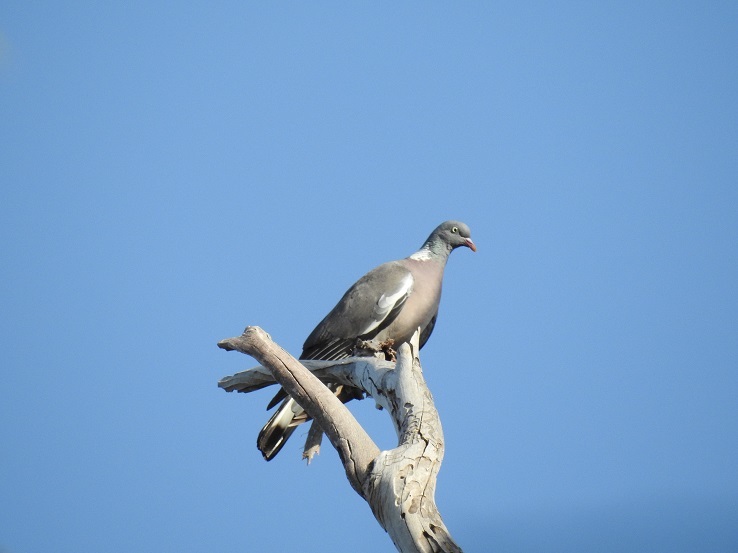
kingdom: Animalia
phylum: Chordata
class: Aves
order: Columbiformes
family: Columbidae
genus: Columba
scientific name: Columba palumbus
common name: Common wood pigeon
